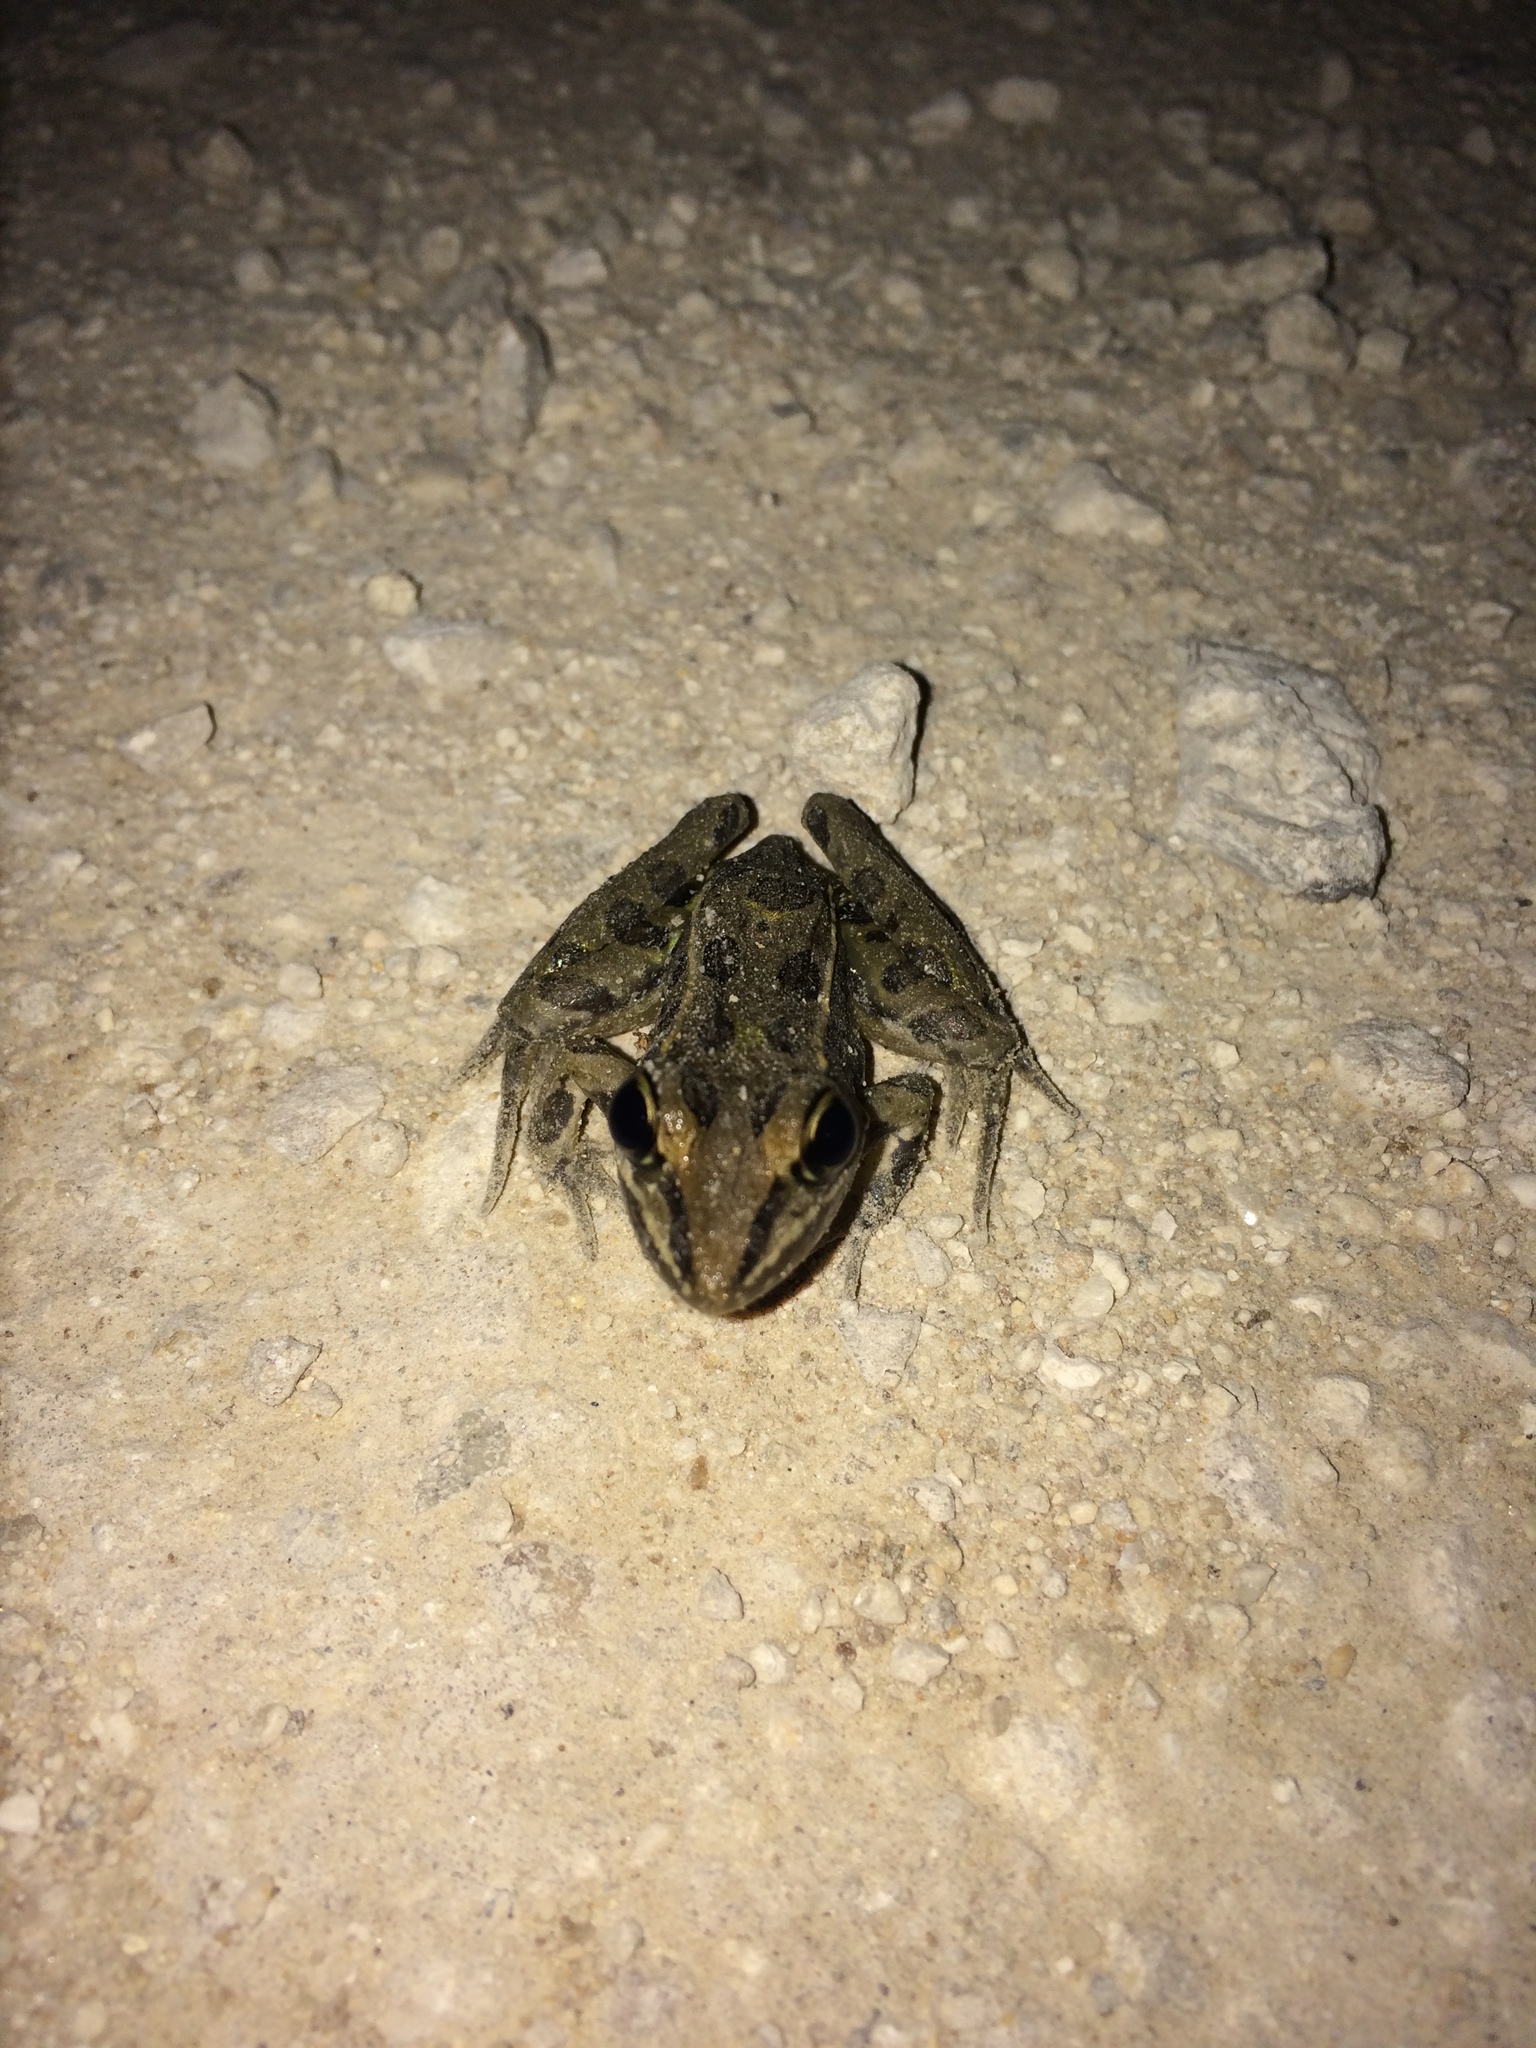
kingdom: Animalia
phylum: Chordata
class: Amphibia
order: Anura
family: Ranidae
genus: Lithobates
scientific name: Lithobates sphenocephalus
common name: Southern leopard frog
